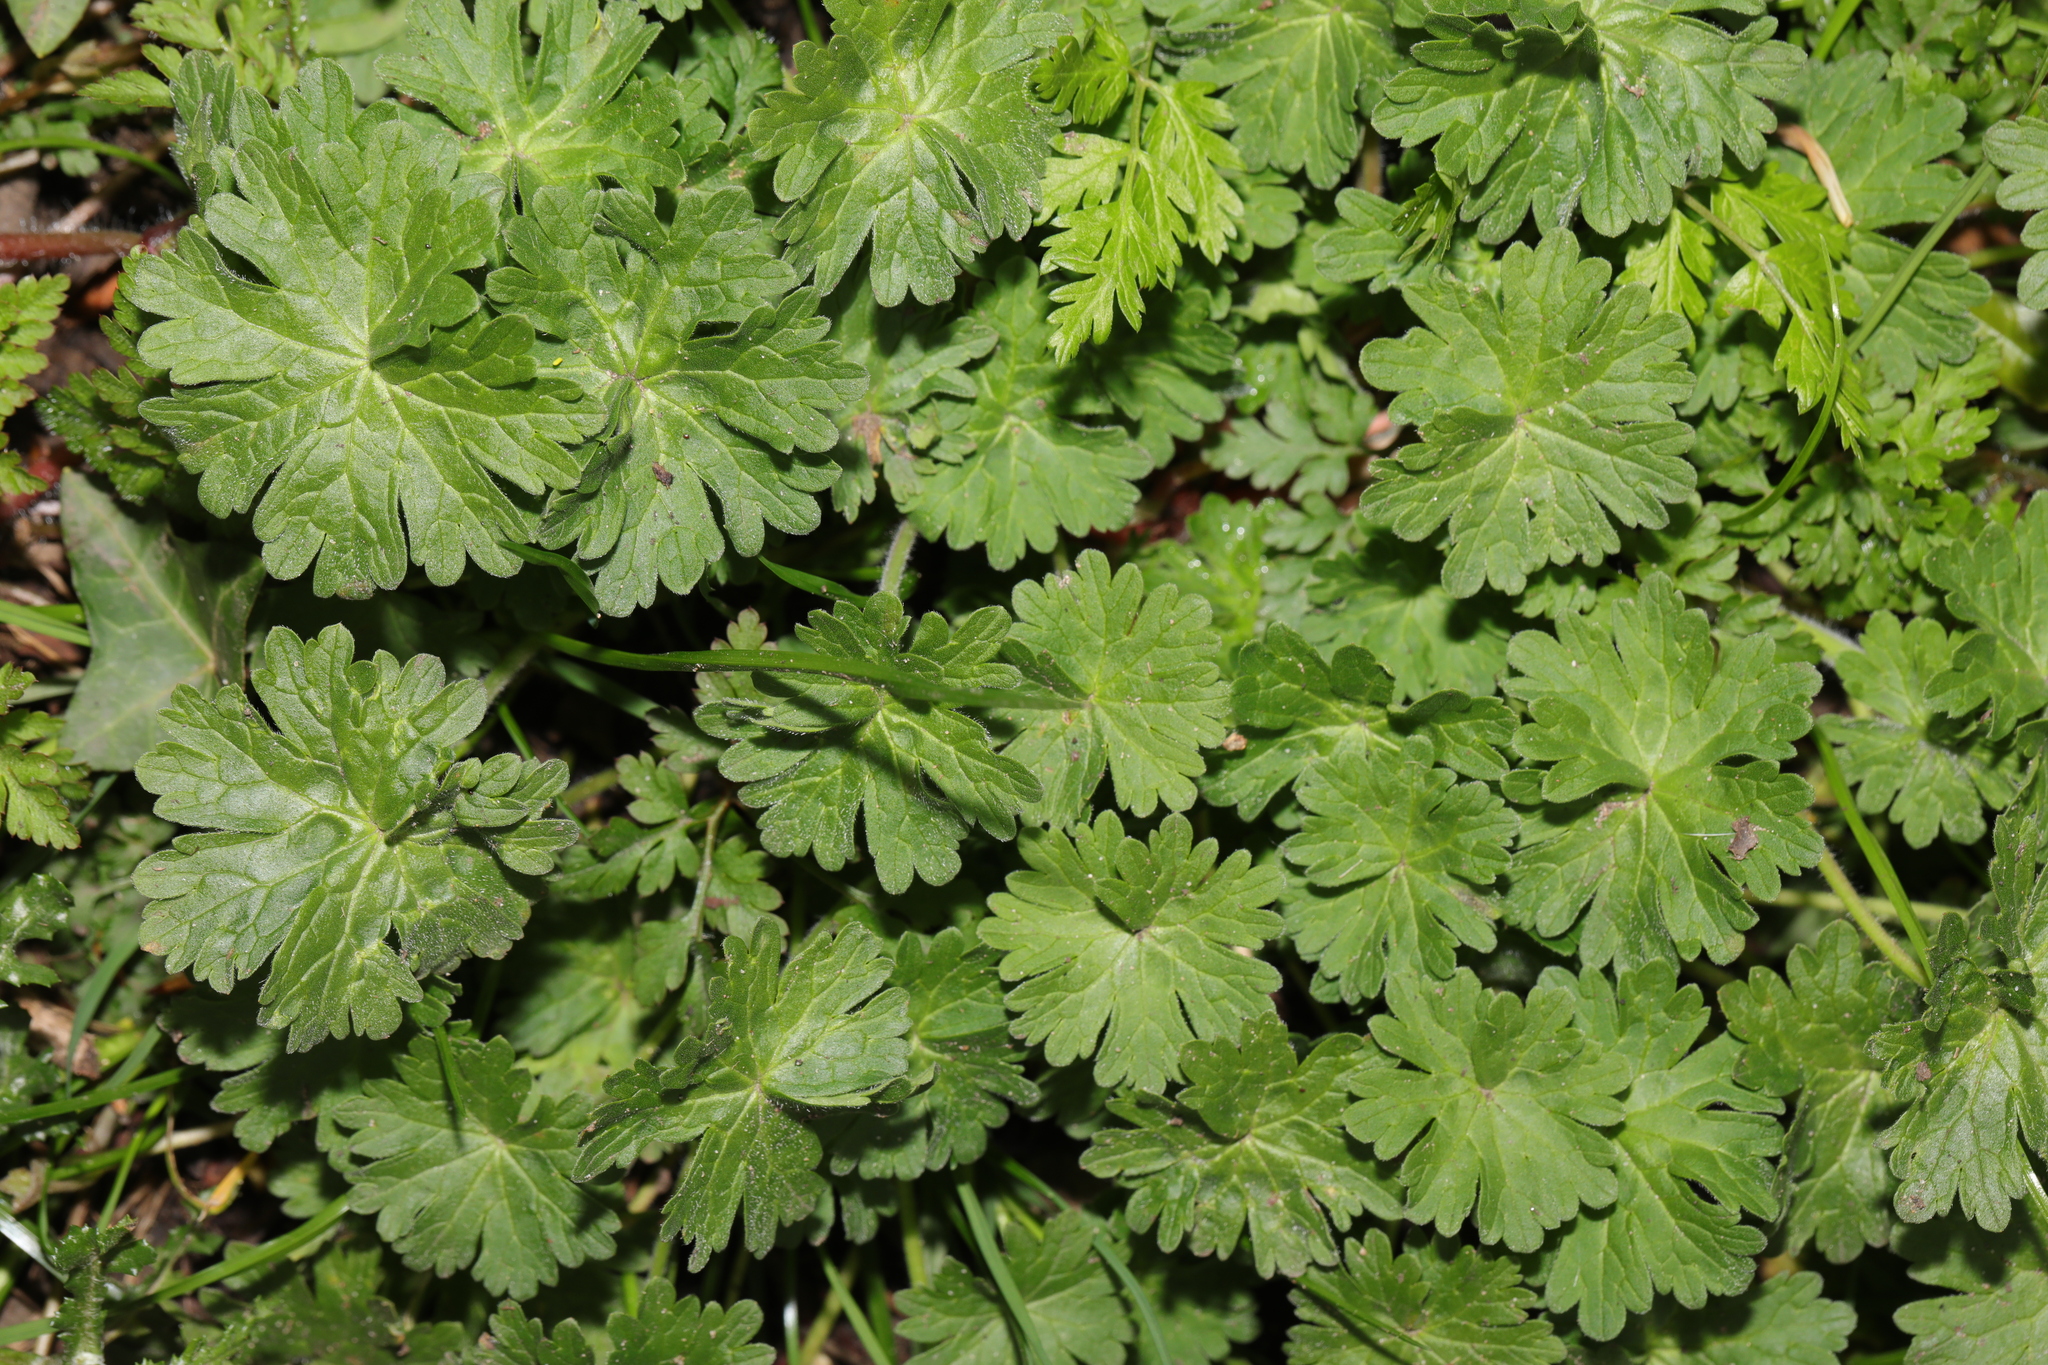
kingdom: Plantae
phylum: Tracheophyta
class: Magnoliopsida
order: Geraniales
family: Geraniaceae
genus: Geranium
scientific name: Geranium molle
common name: Dove's-foot crane's-bill
